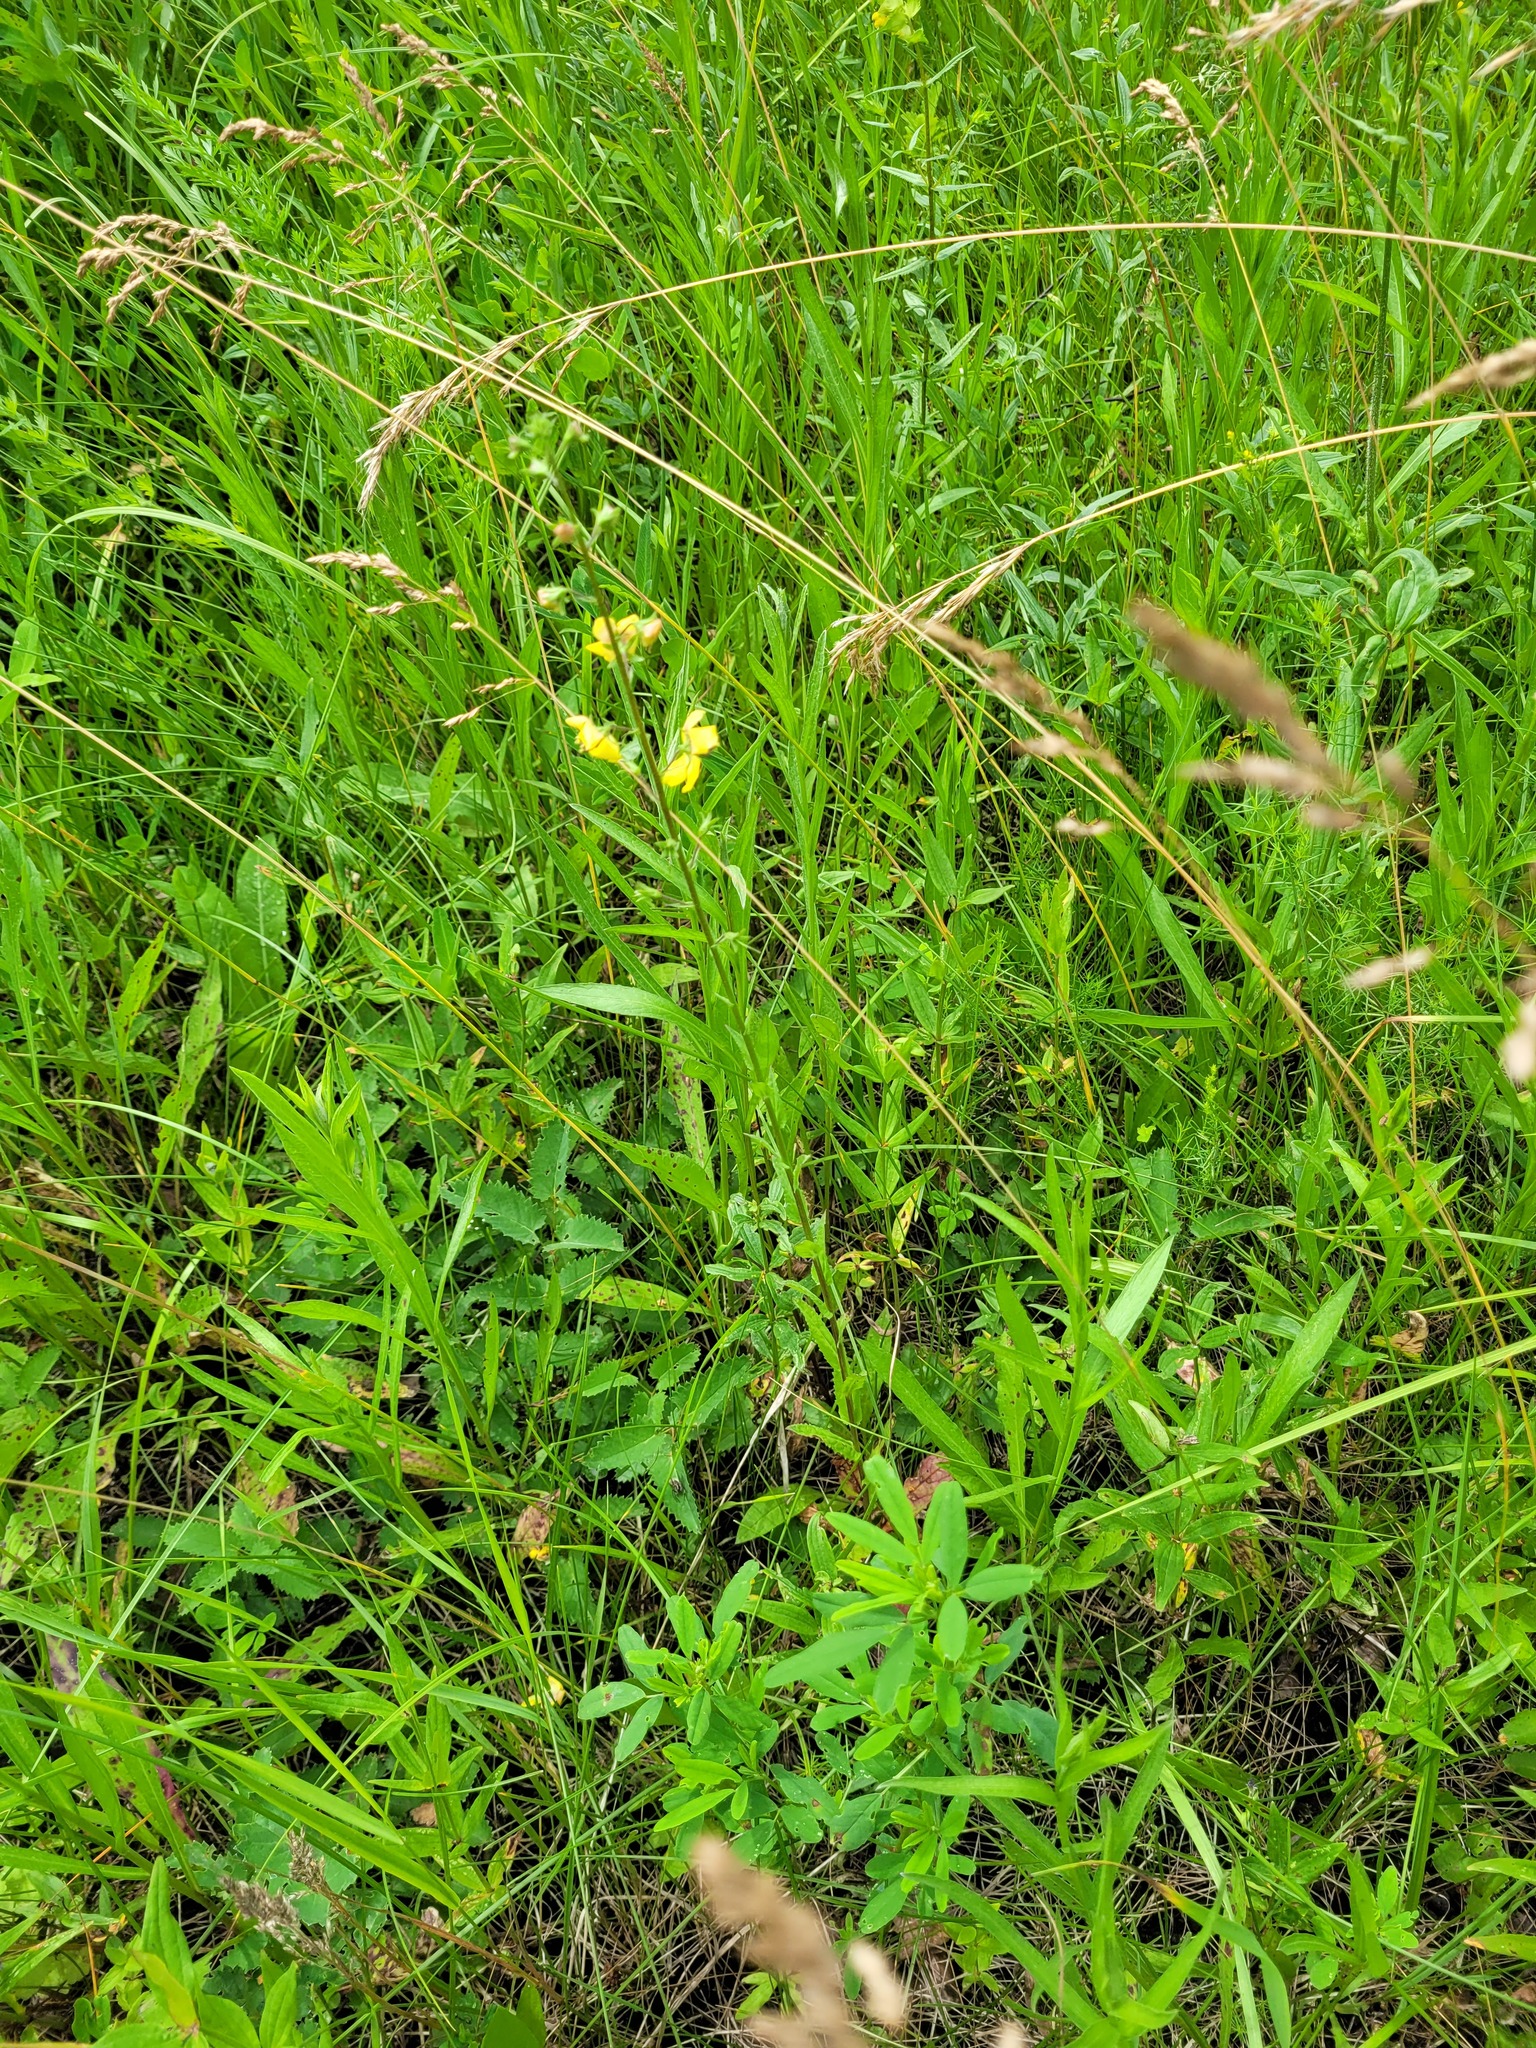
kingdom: Plantae
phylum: Tracheophyta
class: Magnoliopsida
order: Lamiales
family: Scrophulariaceae
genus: Verbascum
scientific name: Verbascum blattaria
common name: Moth mullein
